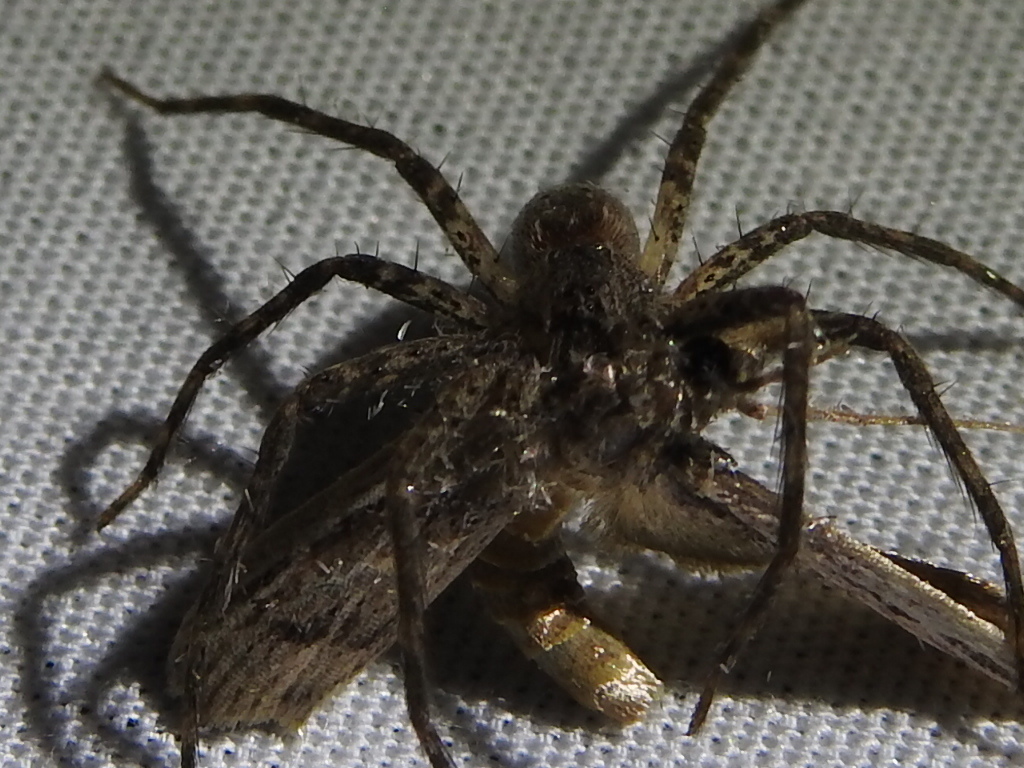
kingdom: Animalia
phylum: Arthropoda
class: Arachnida
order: Araneae
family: Pisauridae
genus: Pisaurina
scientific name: Pisaurina mira
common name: American nursery web spider
